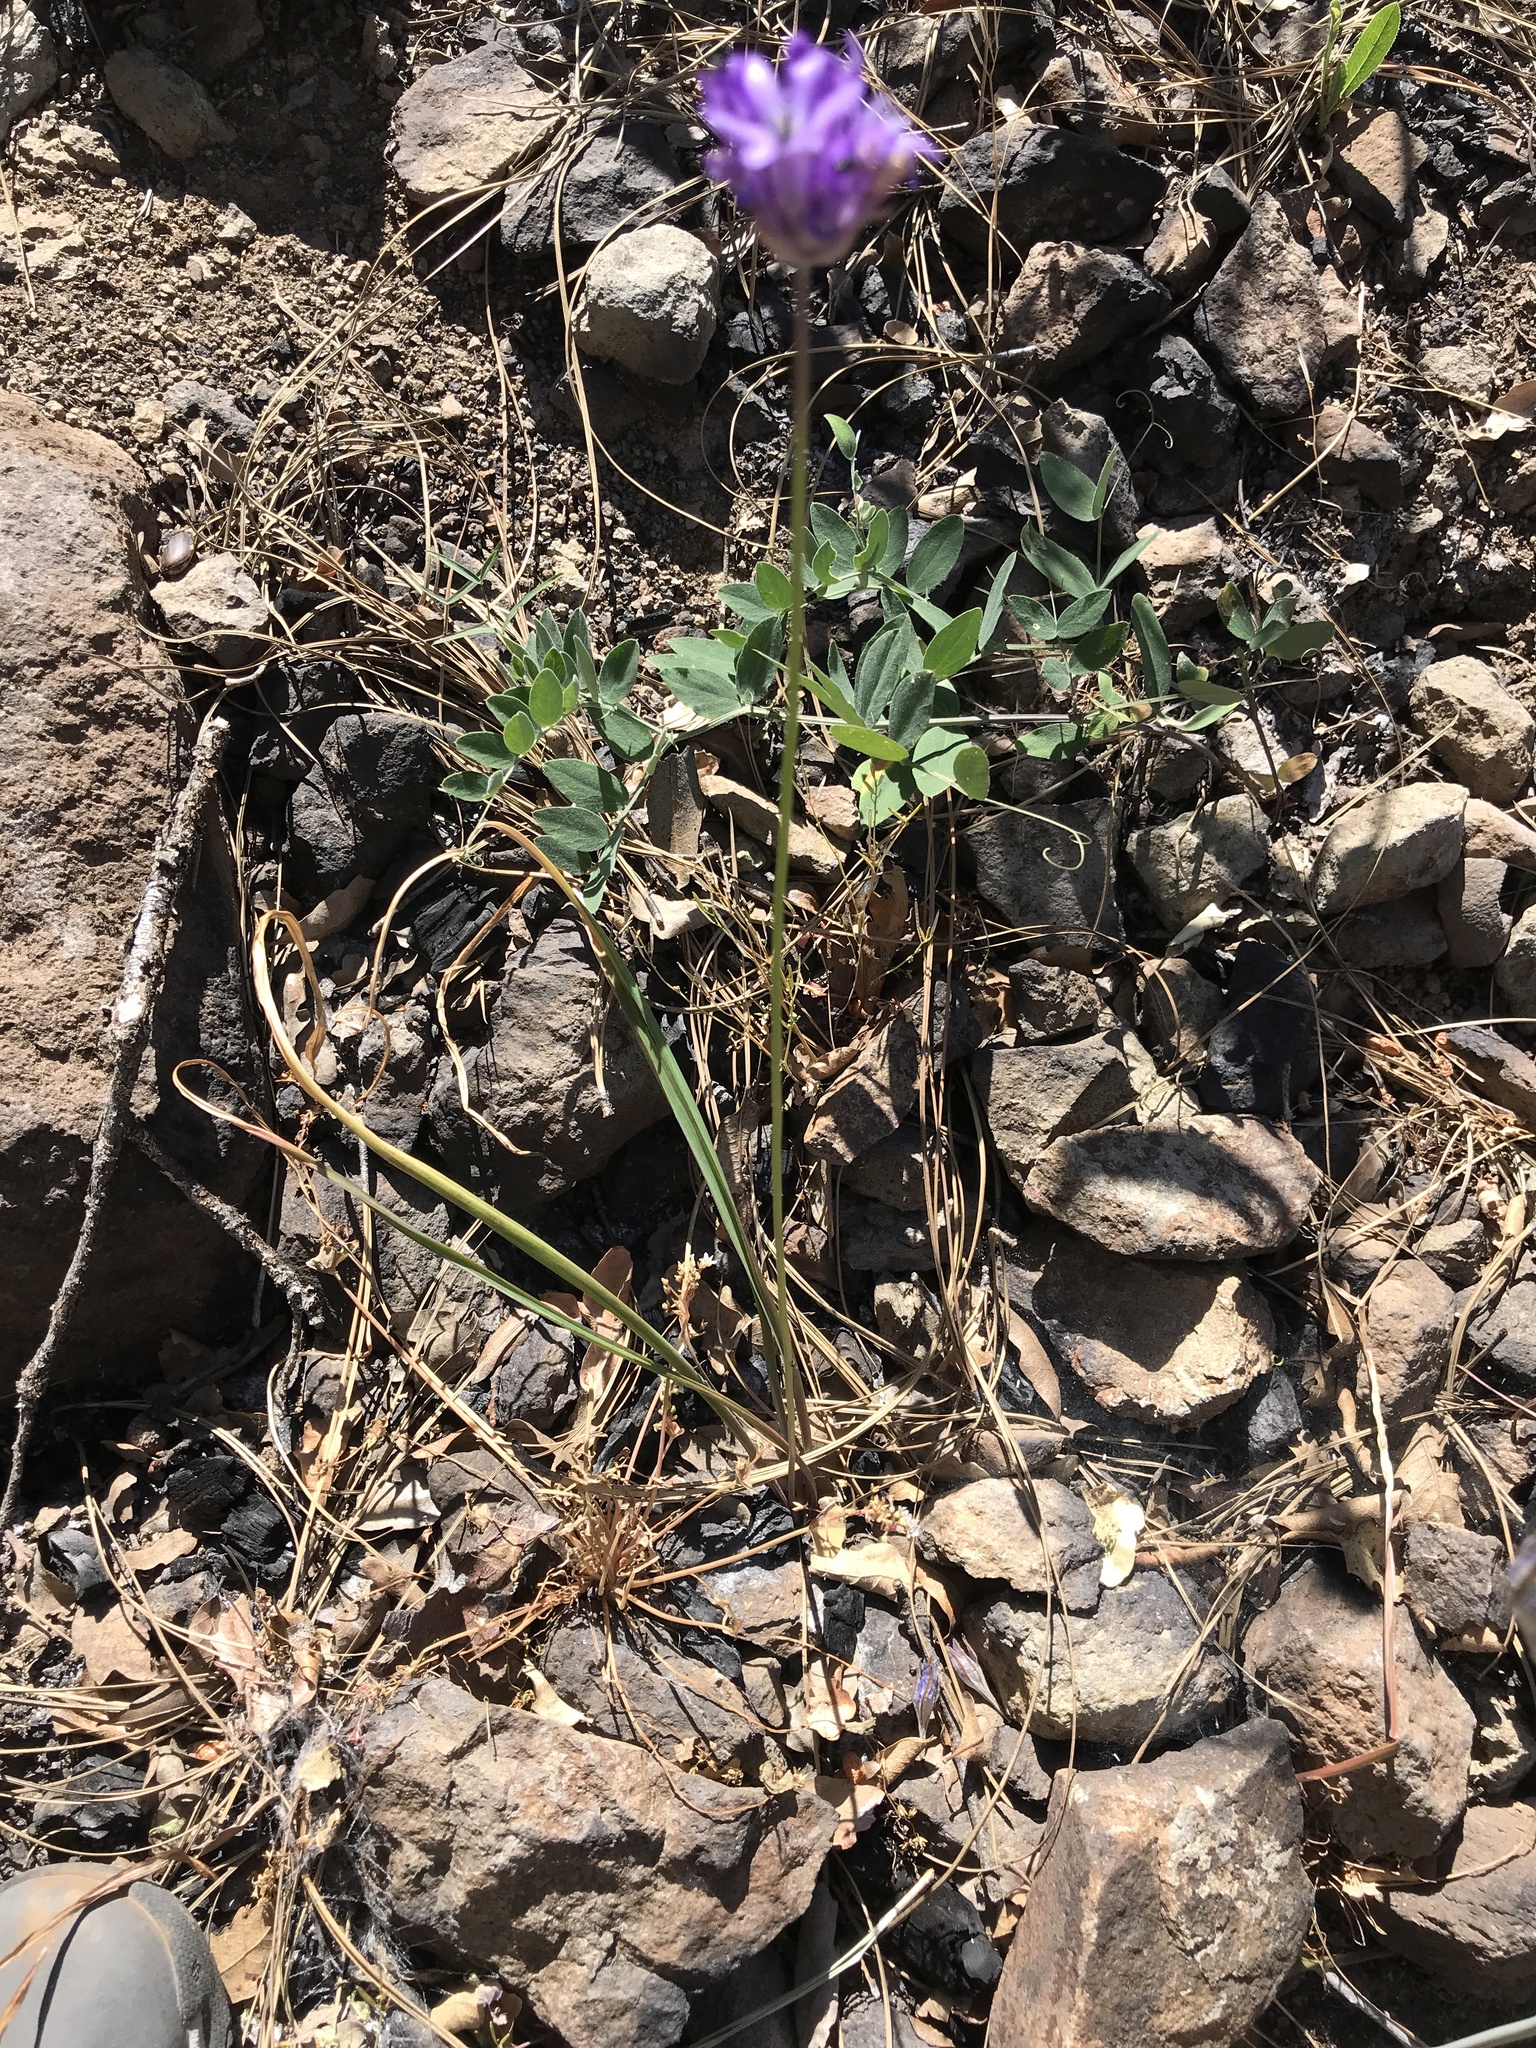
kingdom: Plantae
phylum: Tracheophyta
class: Liliopsida
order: Asparagales
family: Asparagaceae
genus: Dichelostemma
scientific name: Dichelostemma congestum
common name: Fork-tooth ookow
